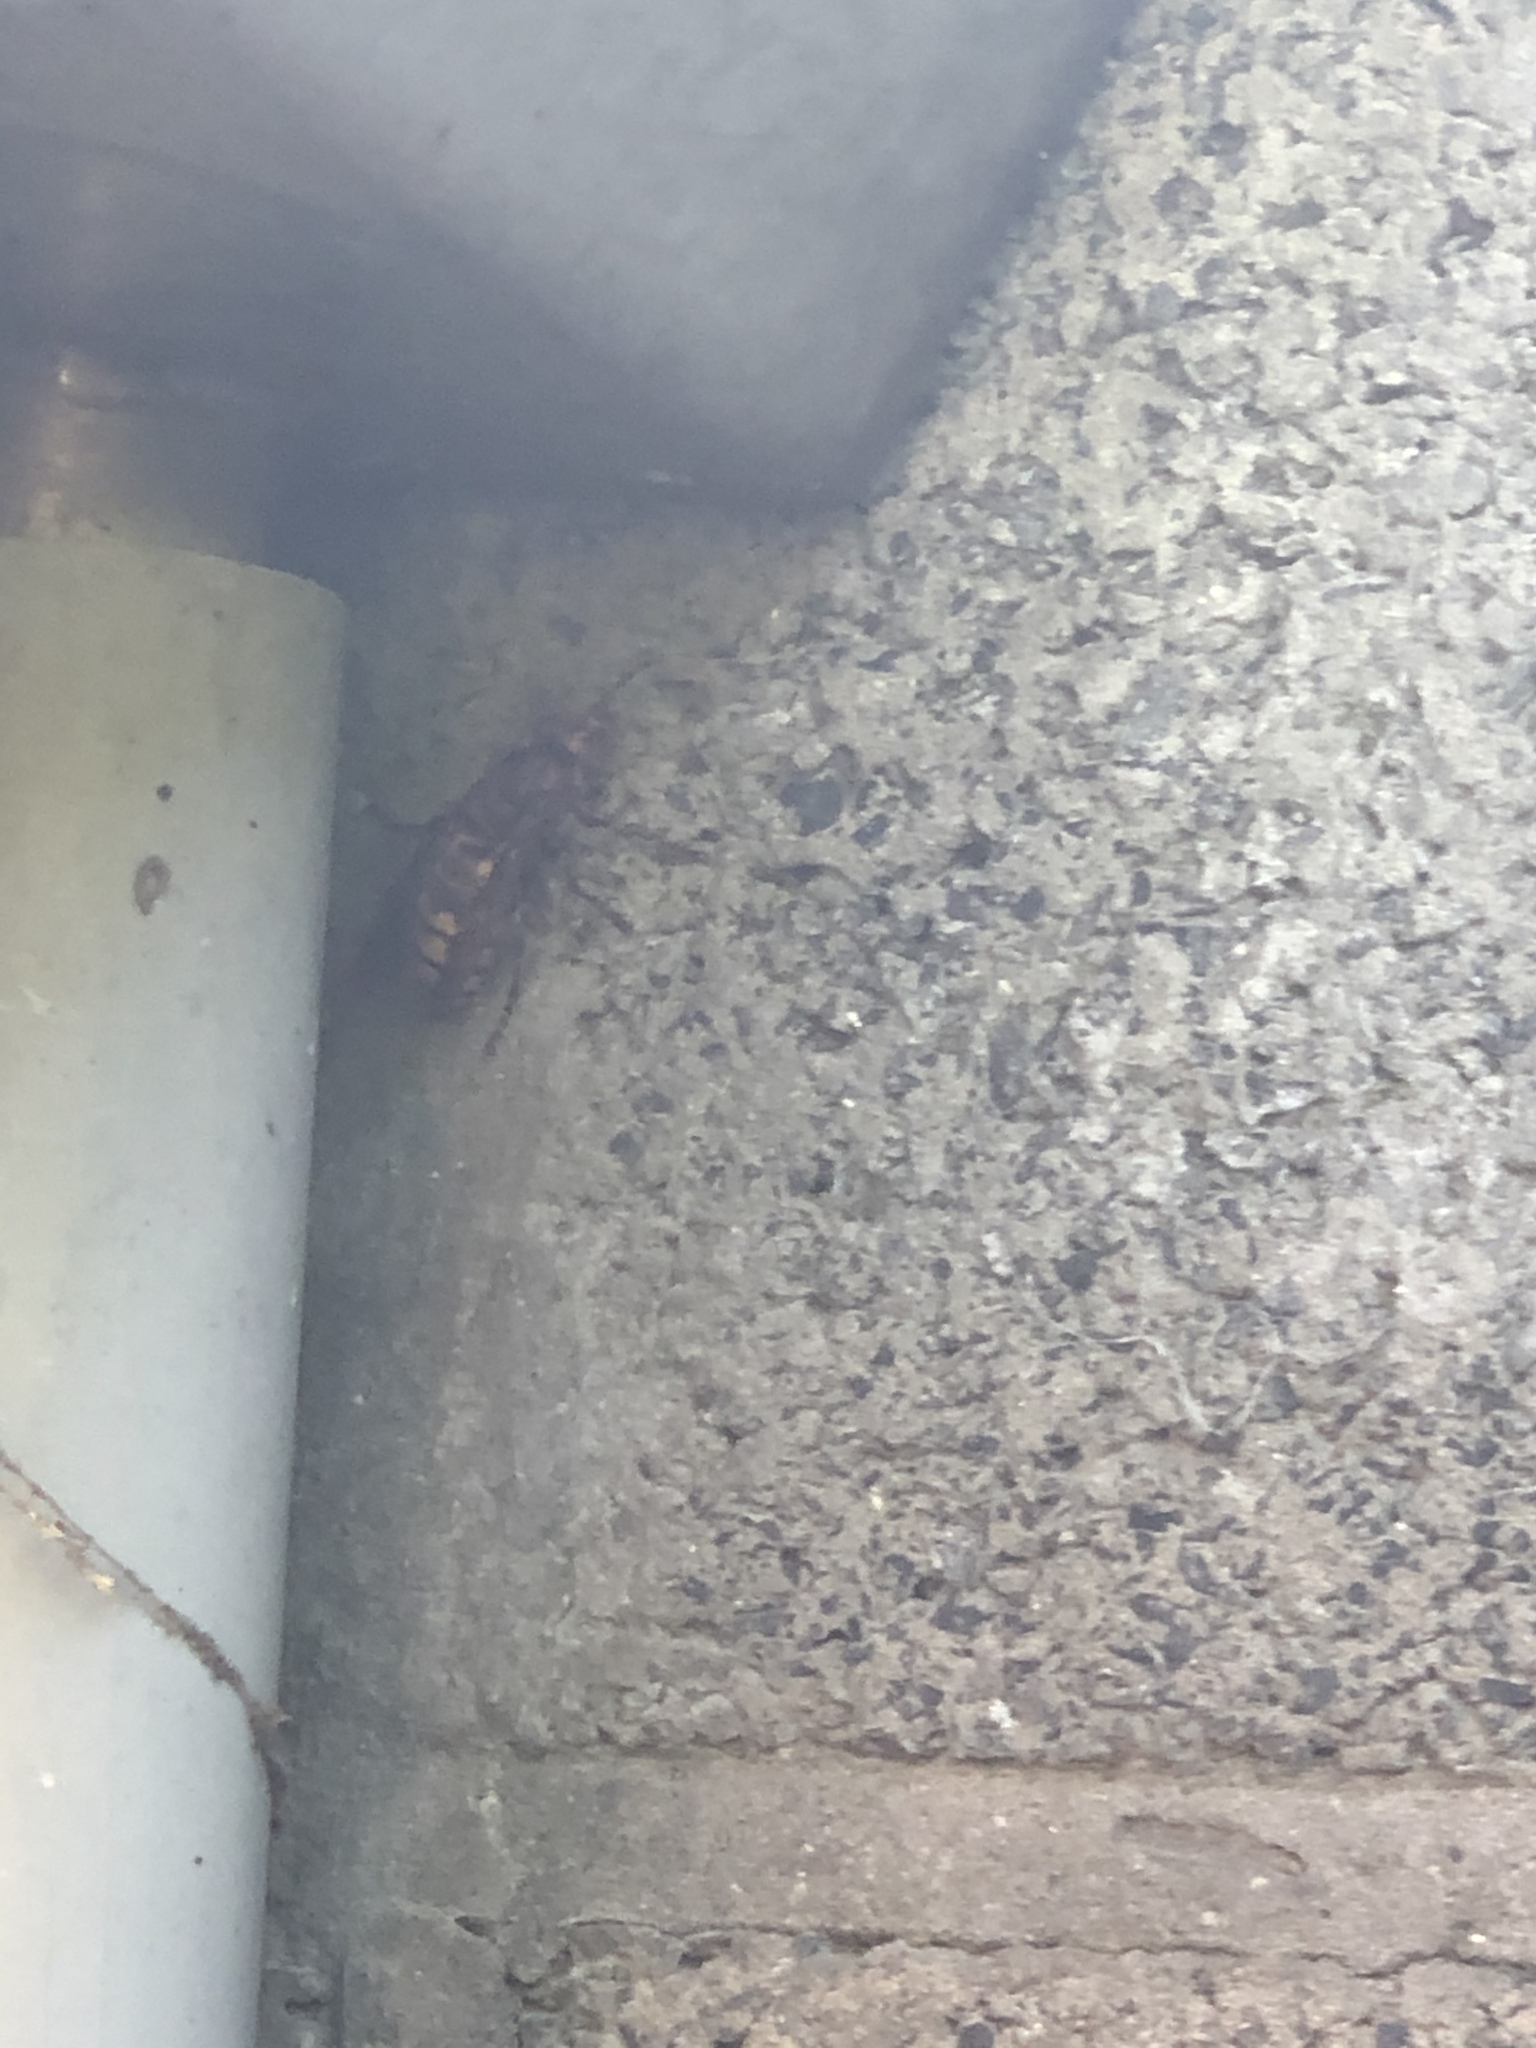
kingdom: Animalia
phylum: Arthropoda
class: Insecta
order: Hymenoptera
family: Vespidae
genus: Vespa
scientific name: Vespa crabro
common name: Hornet
